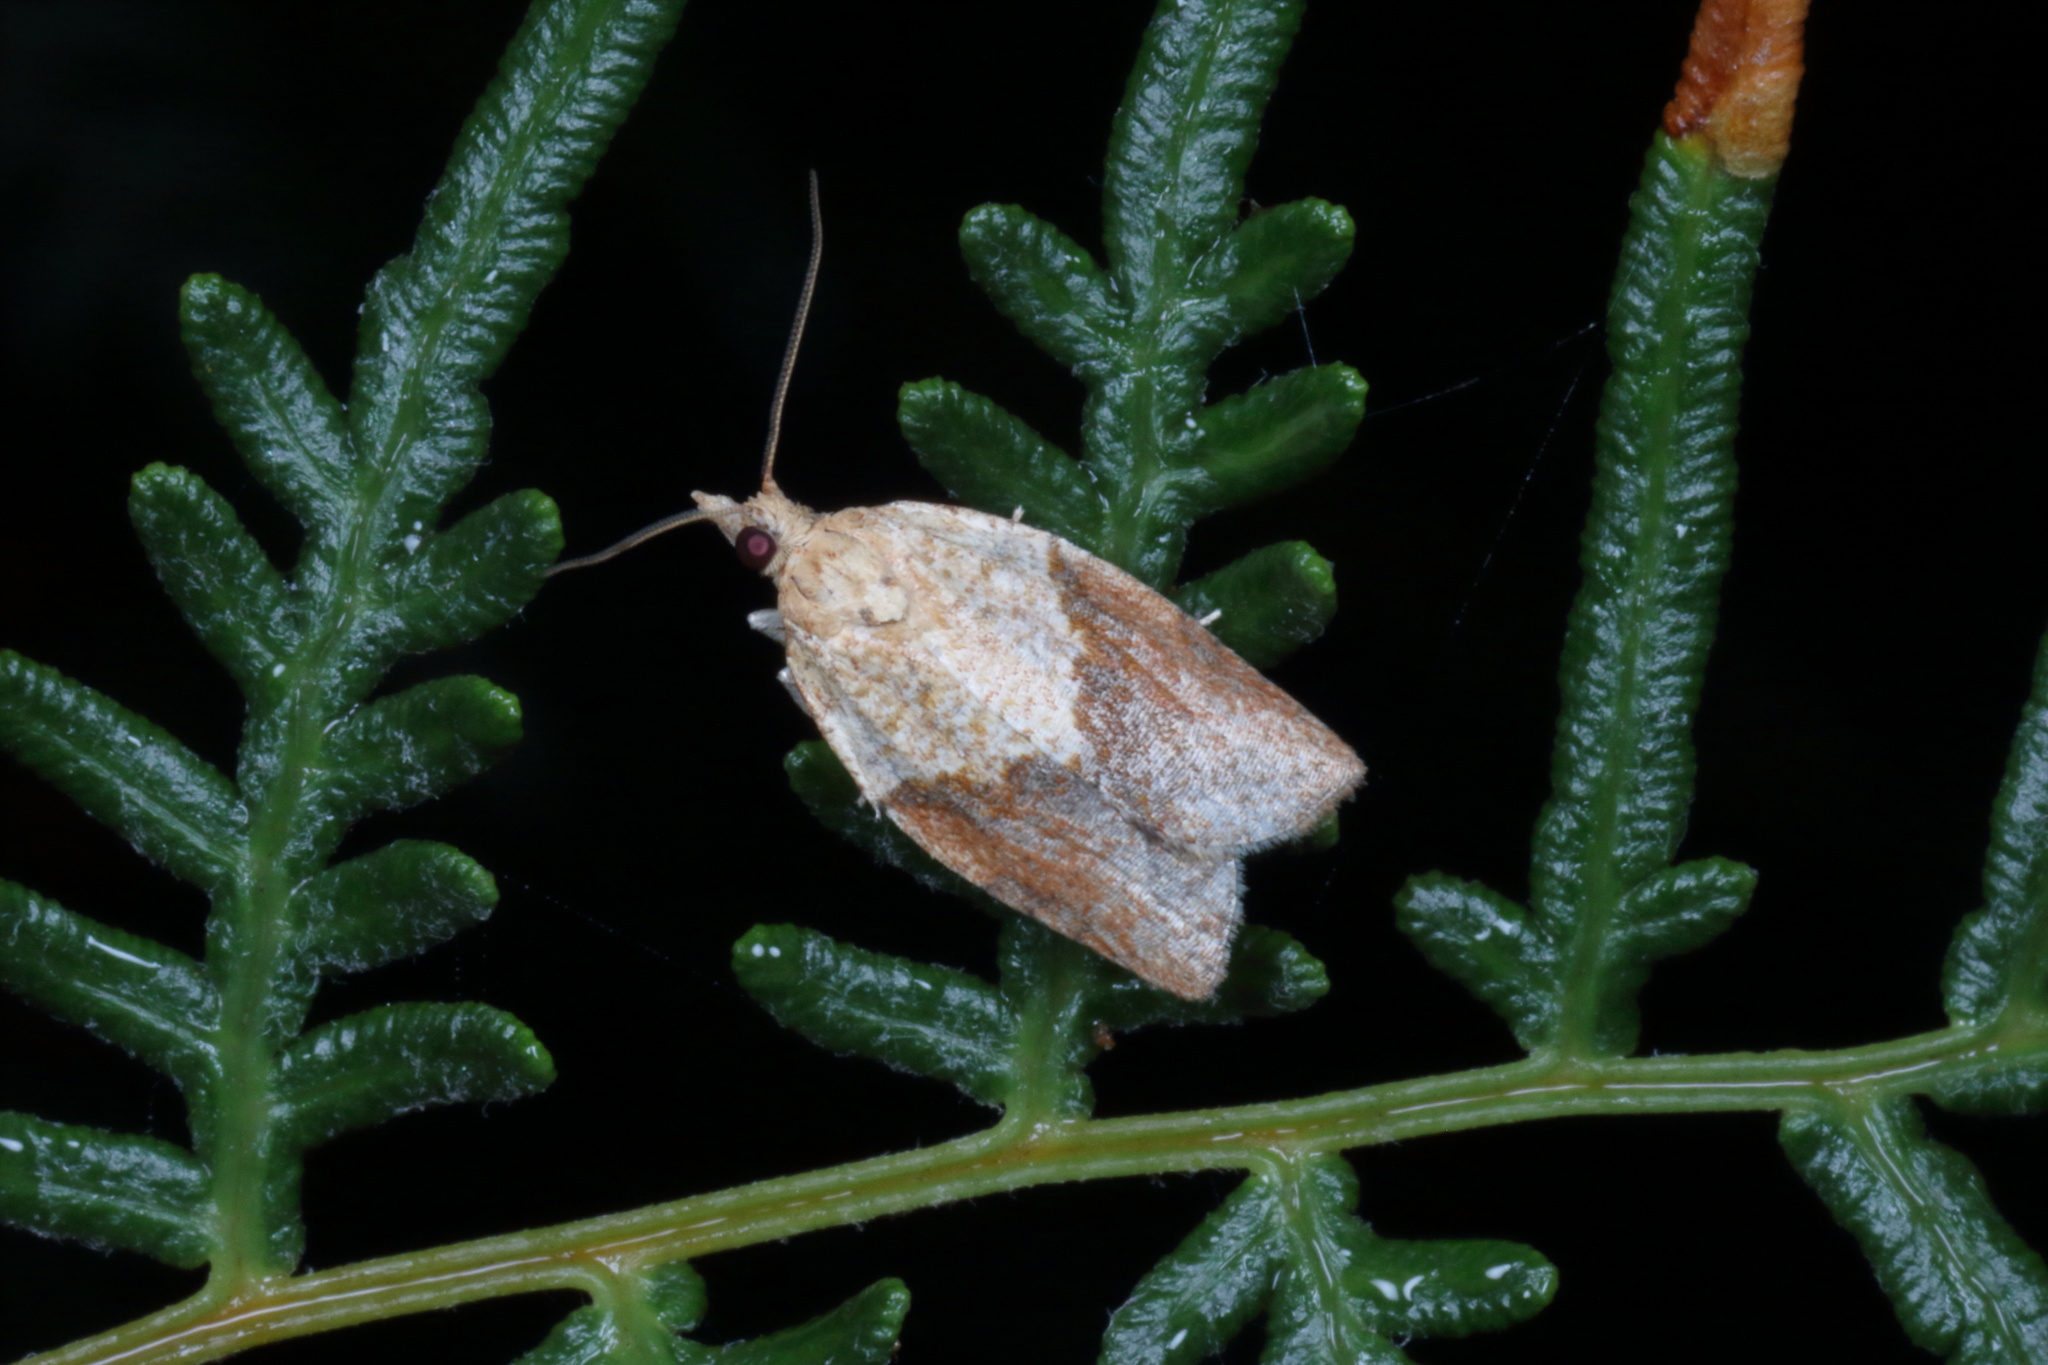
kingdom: Animalia
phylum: Arthropoda
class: Insecta
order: Lepidoptera
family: Tortricidae
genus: Epiphyas
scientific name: Epiphyas postvittana
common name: Light brown apple moth
